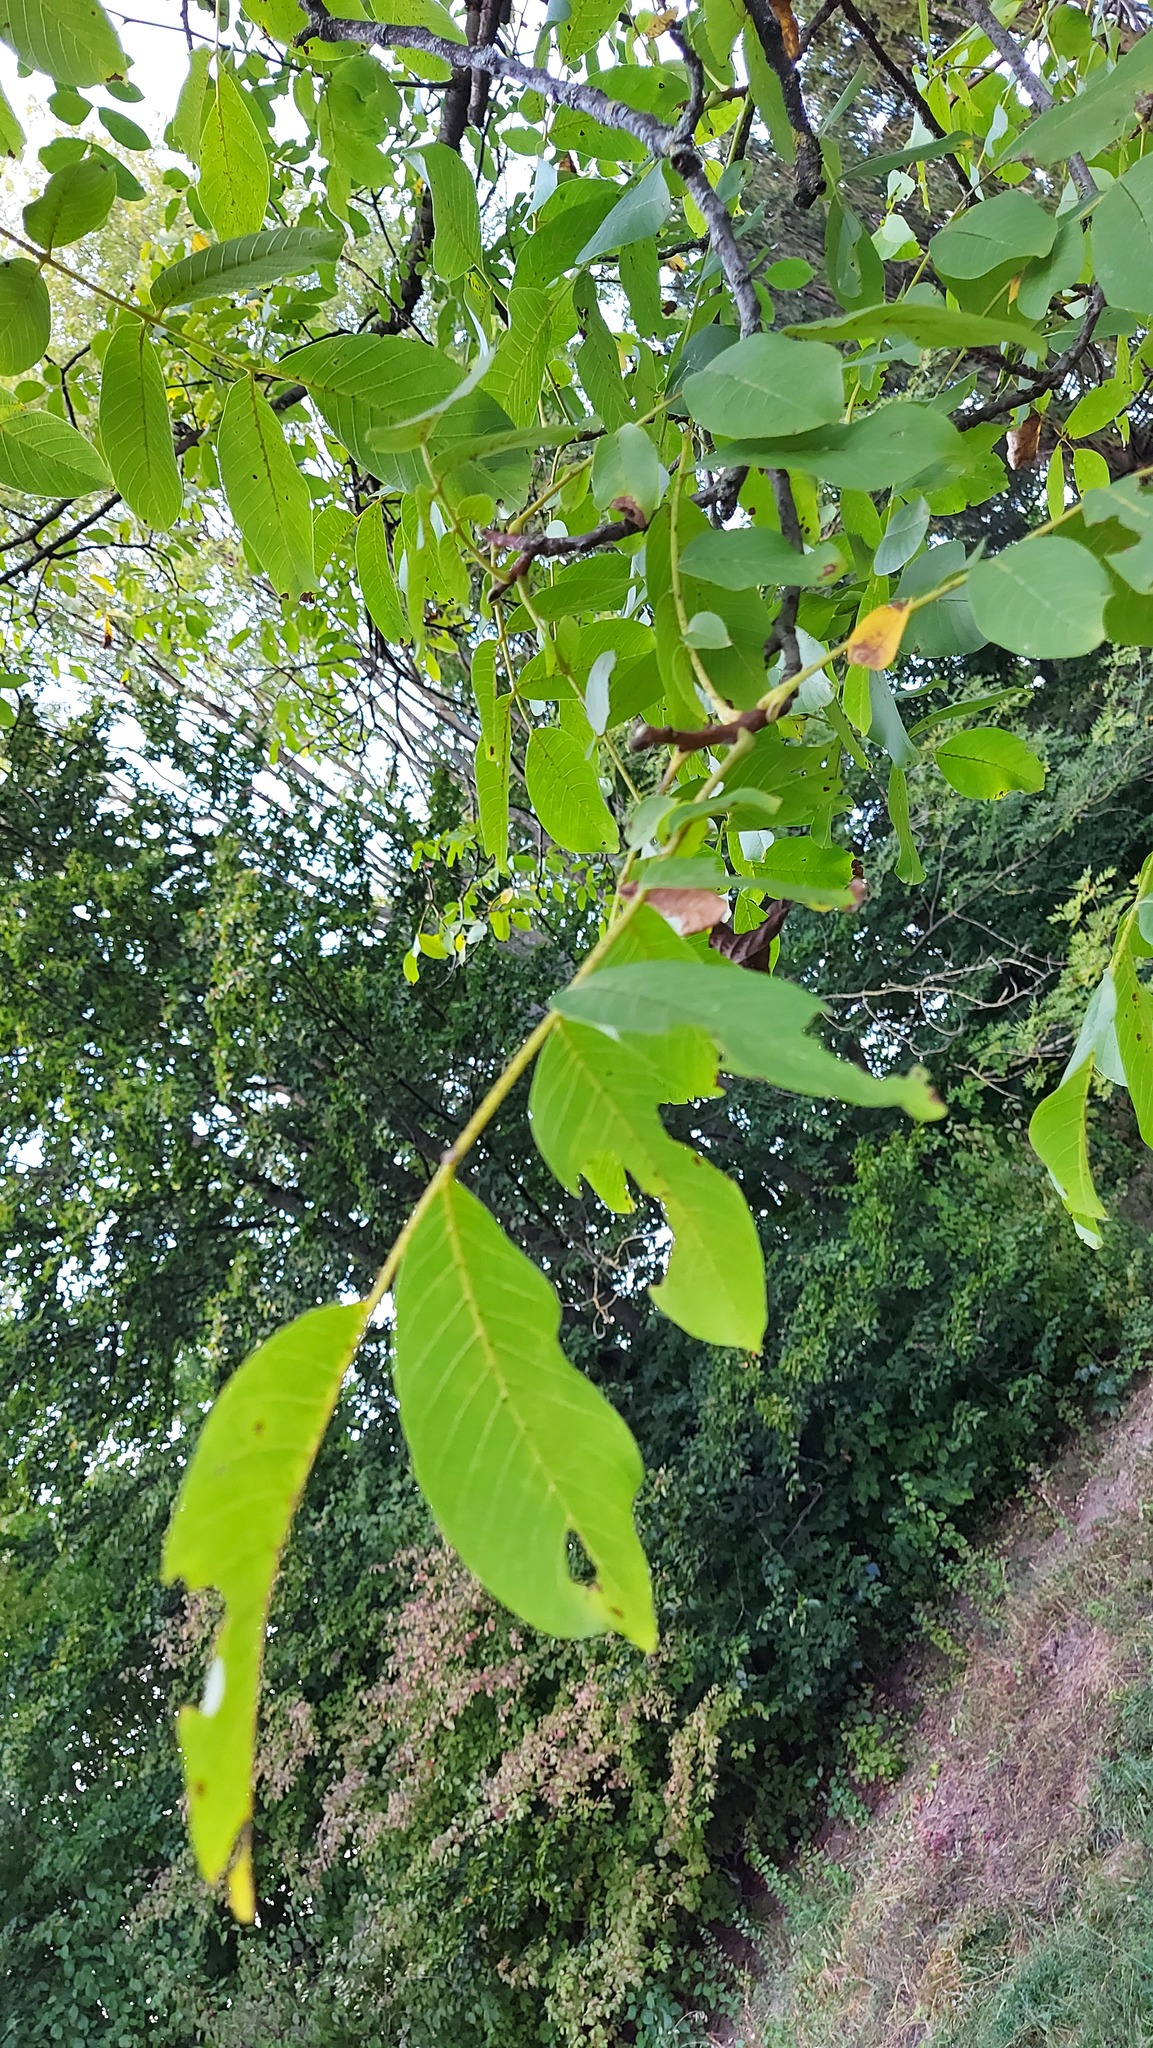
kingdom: Plantae
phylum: Tracheophyta
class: Magnoliopsida
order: Fagales
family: Juglandaceae
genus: Juglans
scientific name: Juglans regia
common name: Walnut
